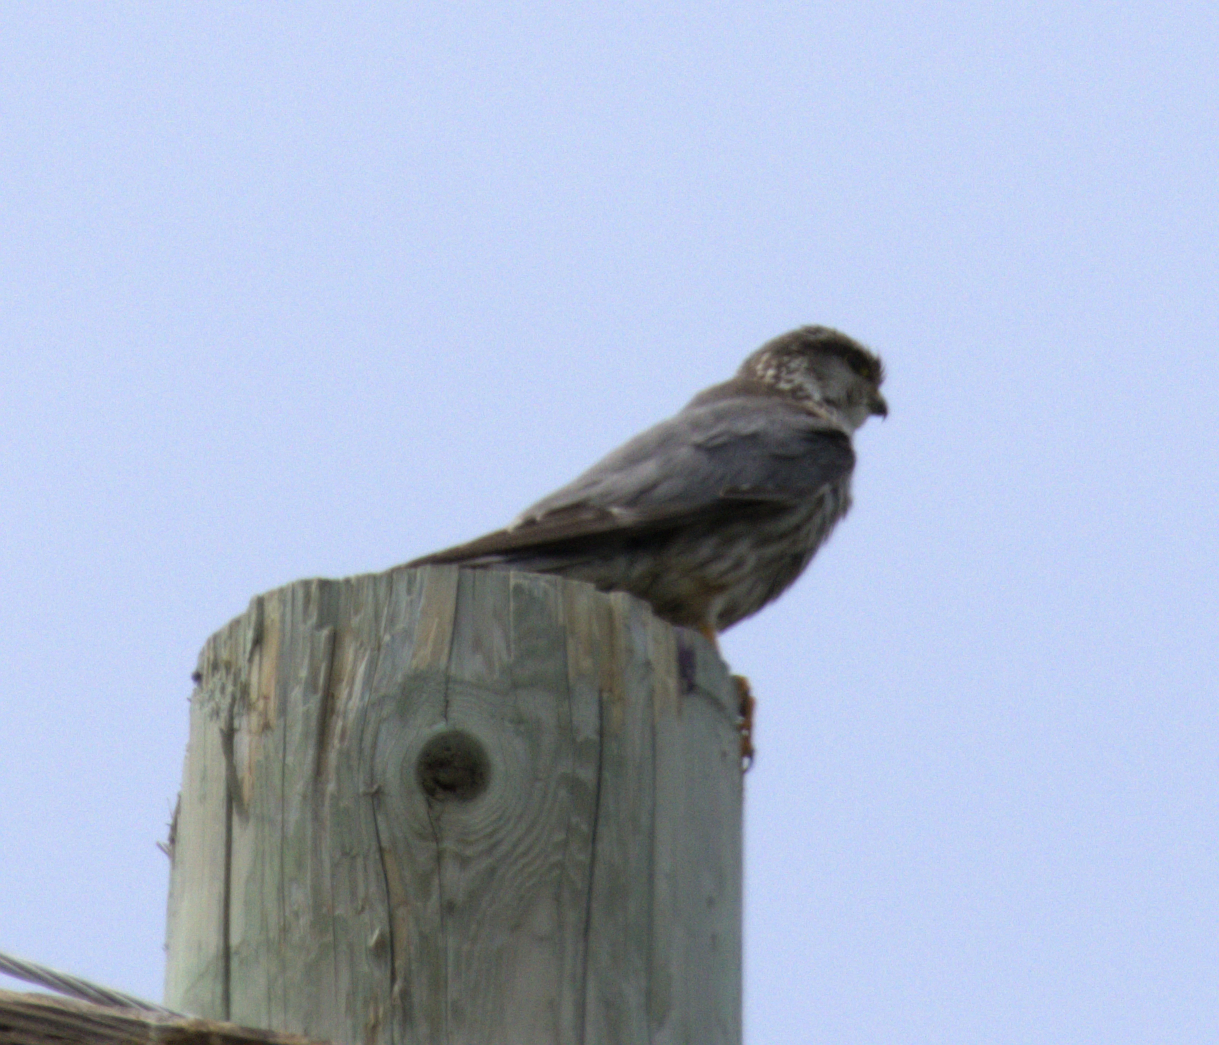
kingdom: Animalia
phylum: Chordata
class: Aves
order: Falconiformes
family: Falconidae
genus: Falco
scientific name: Falco columbarius
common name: Merlin
